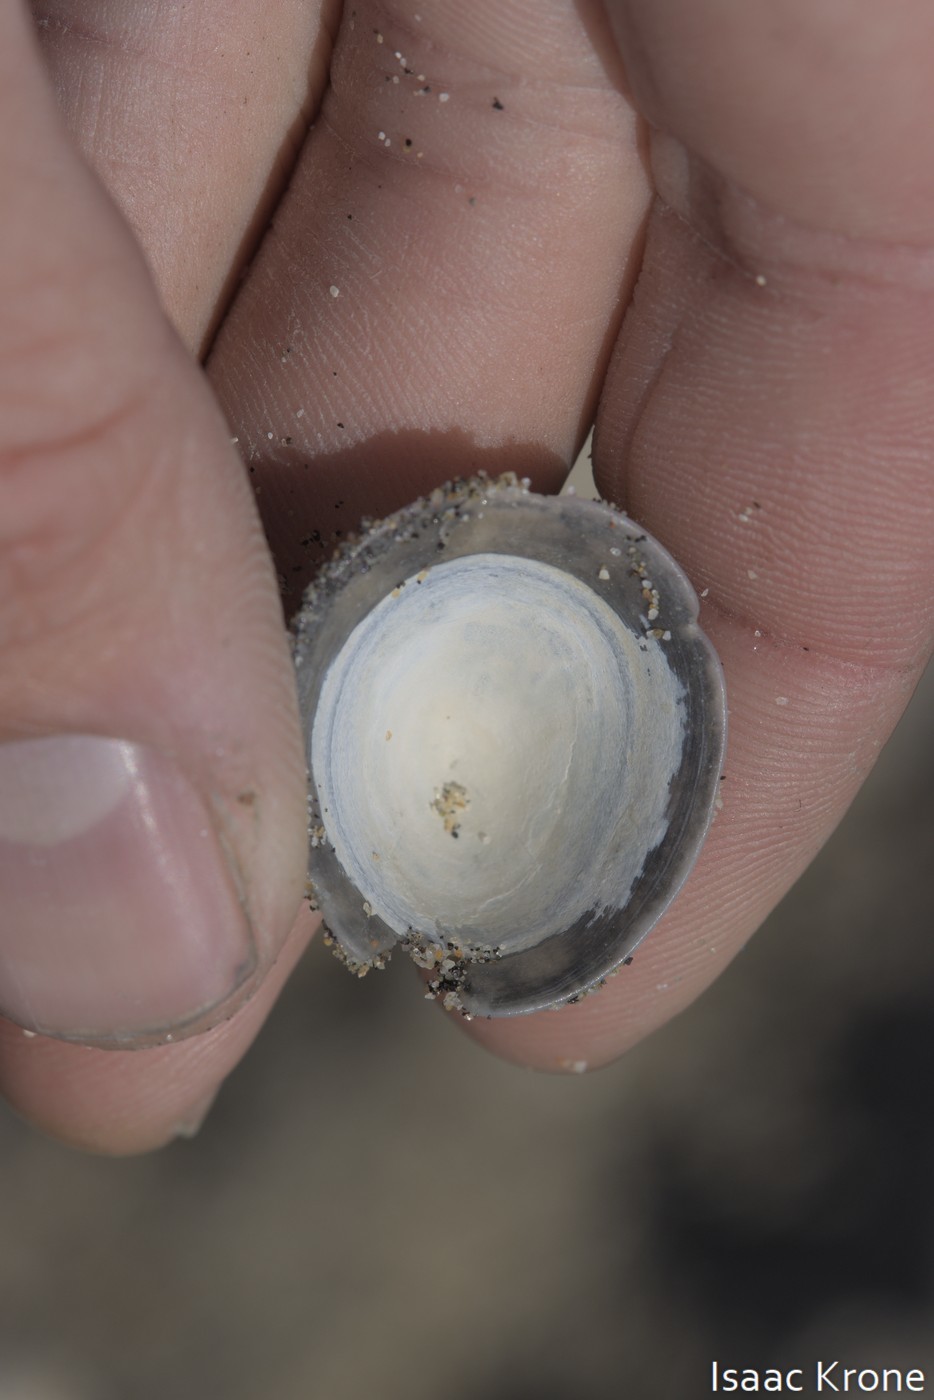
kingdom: Animalia
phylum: Mollusca
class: Gastropoda
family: Acmaeidae
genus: Acmaea
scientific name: Acmaea mitra
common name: Pacific white cap limpet
